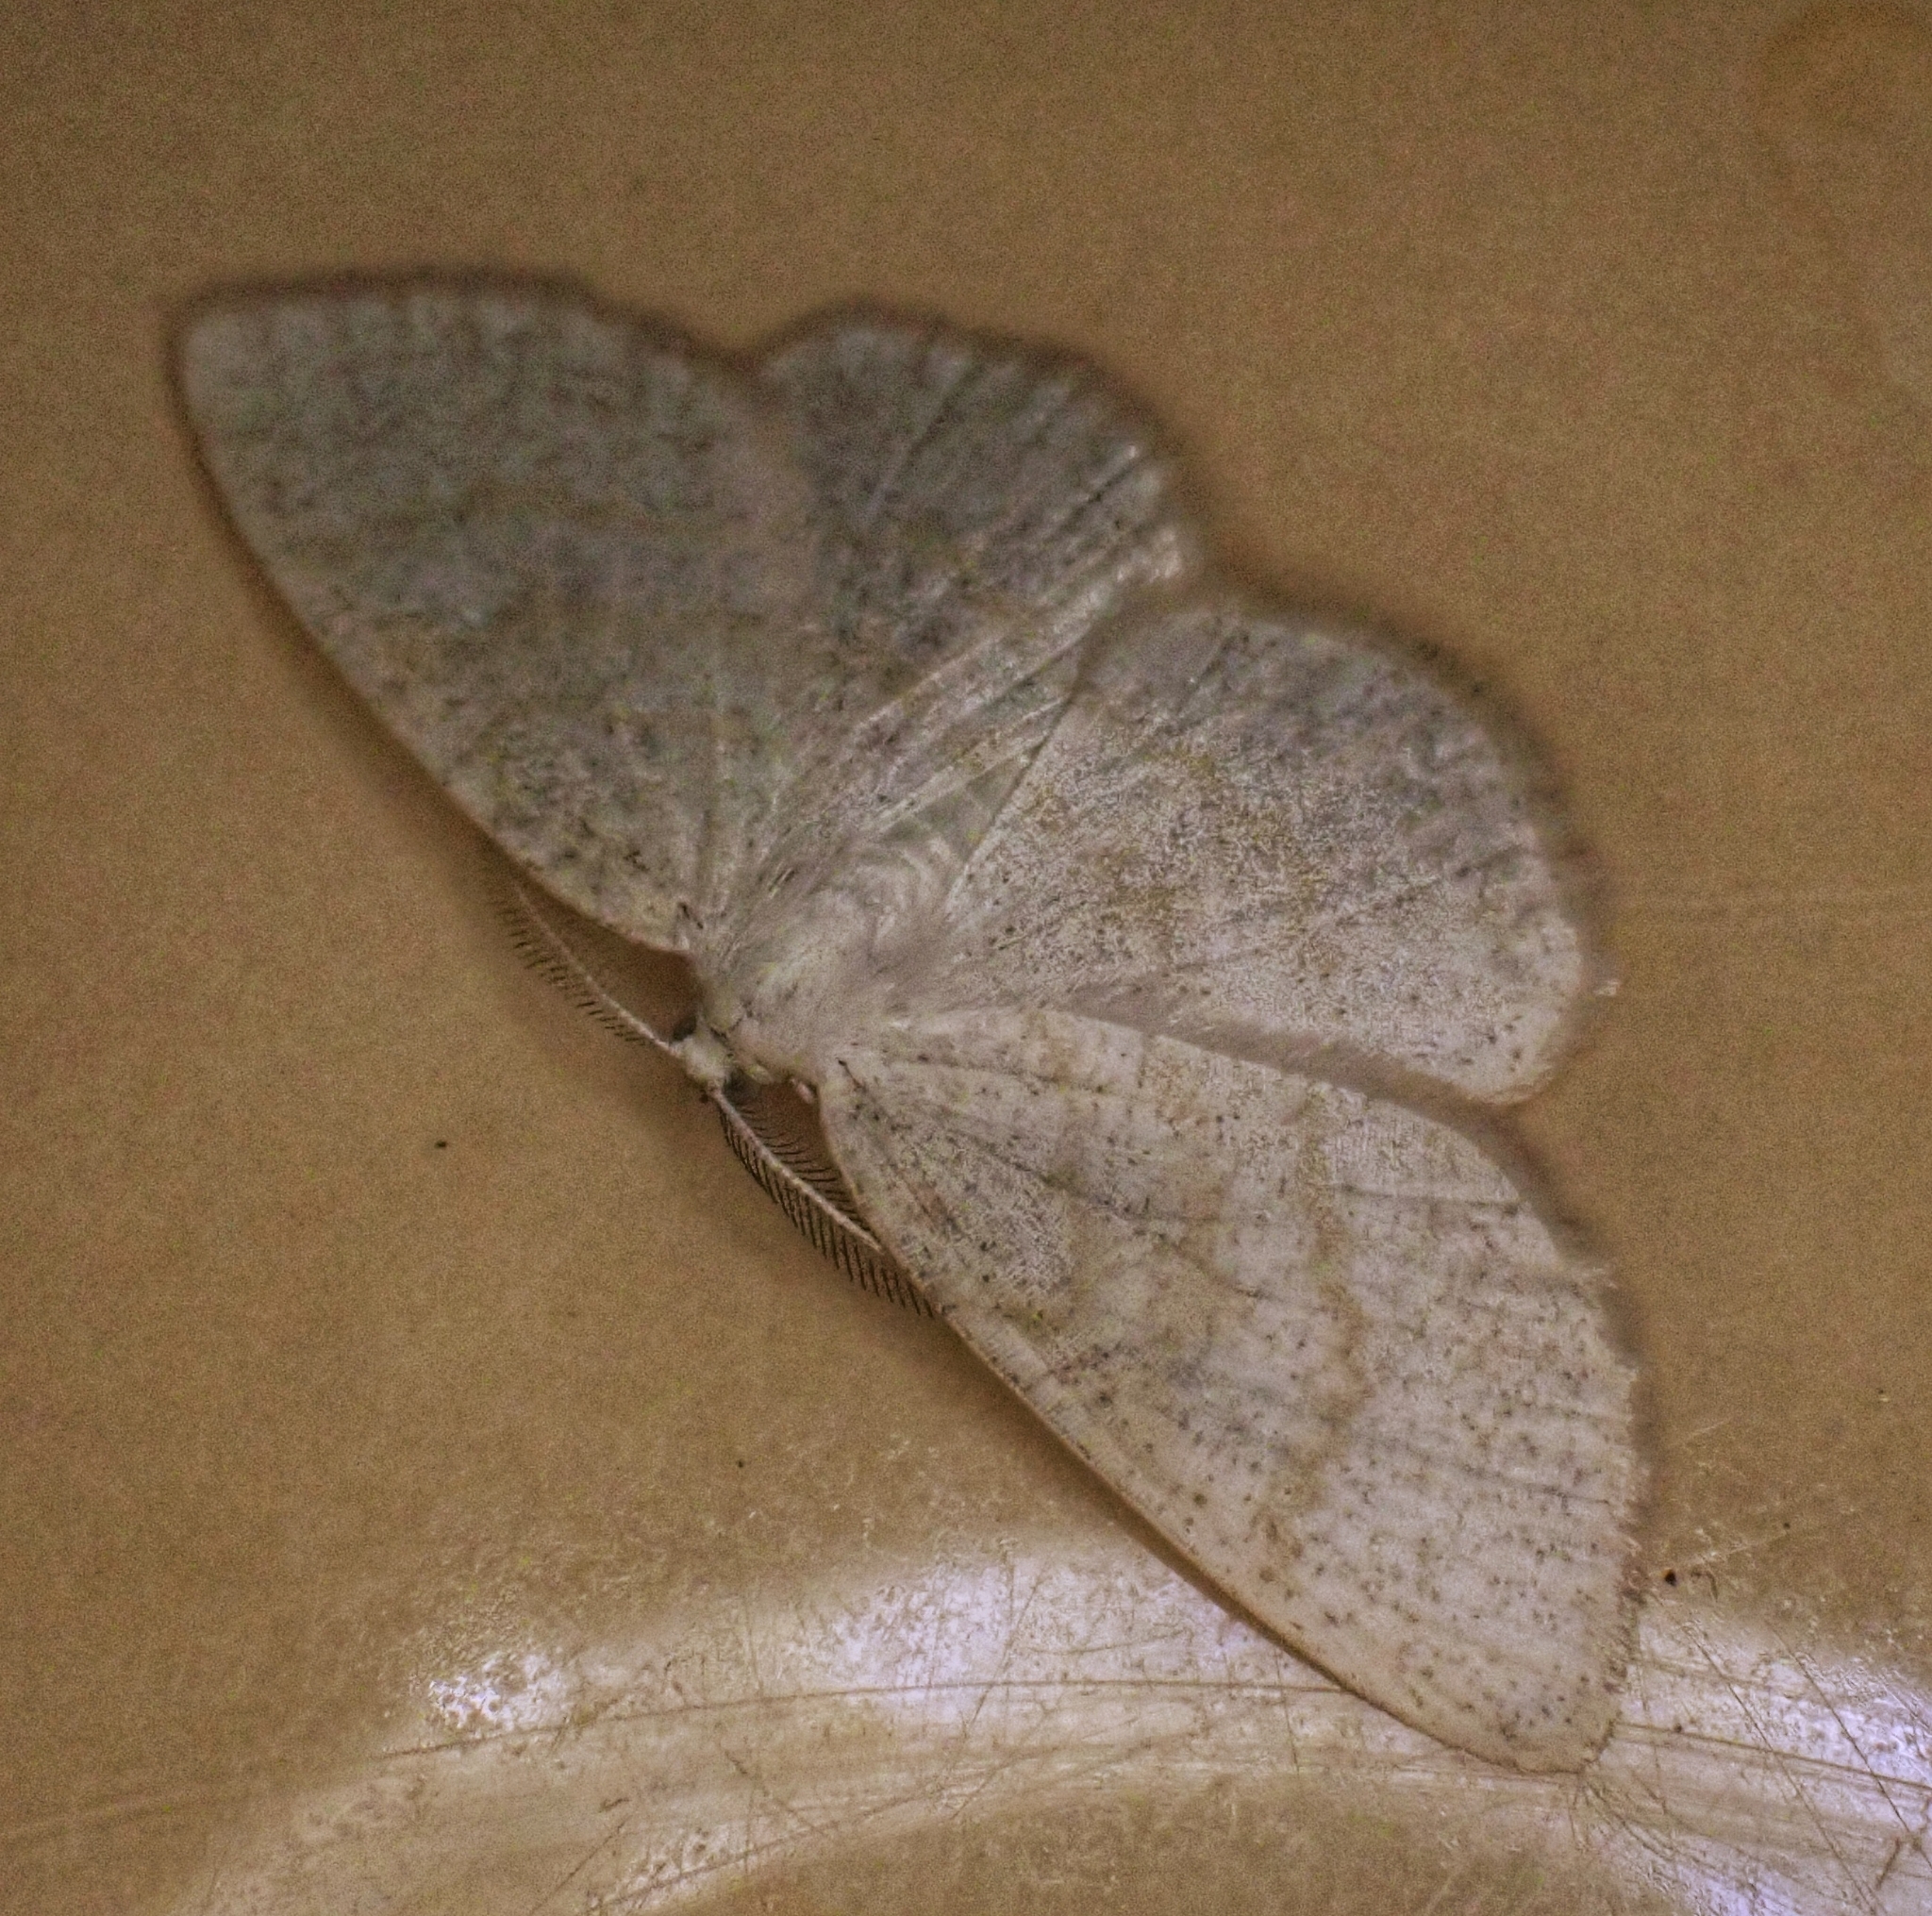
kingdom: Animalia
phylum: Arthropoda
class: Insecta
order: Lepidoptera
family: Geometridae
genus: Cabera
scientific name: Cabera exanthemata
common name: Common wave
